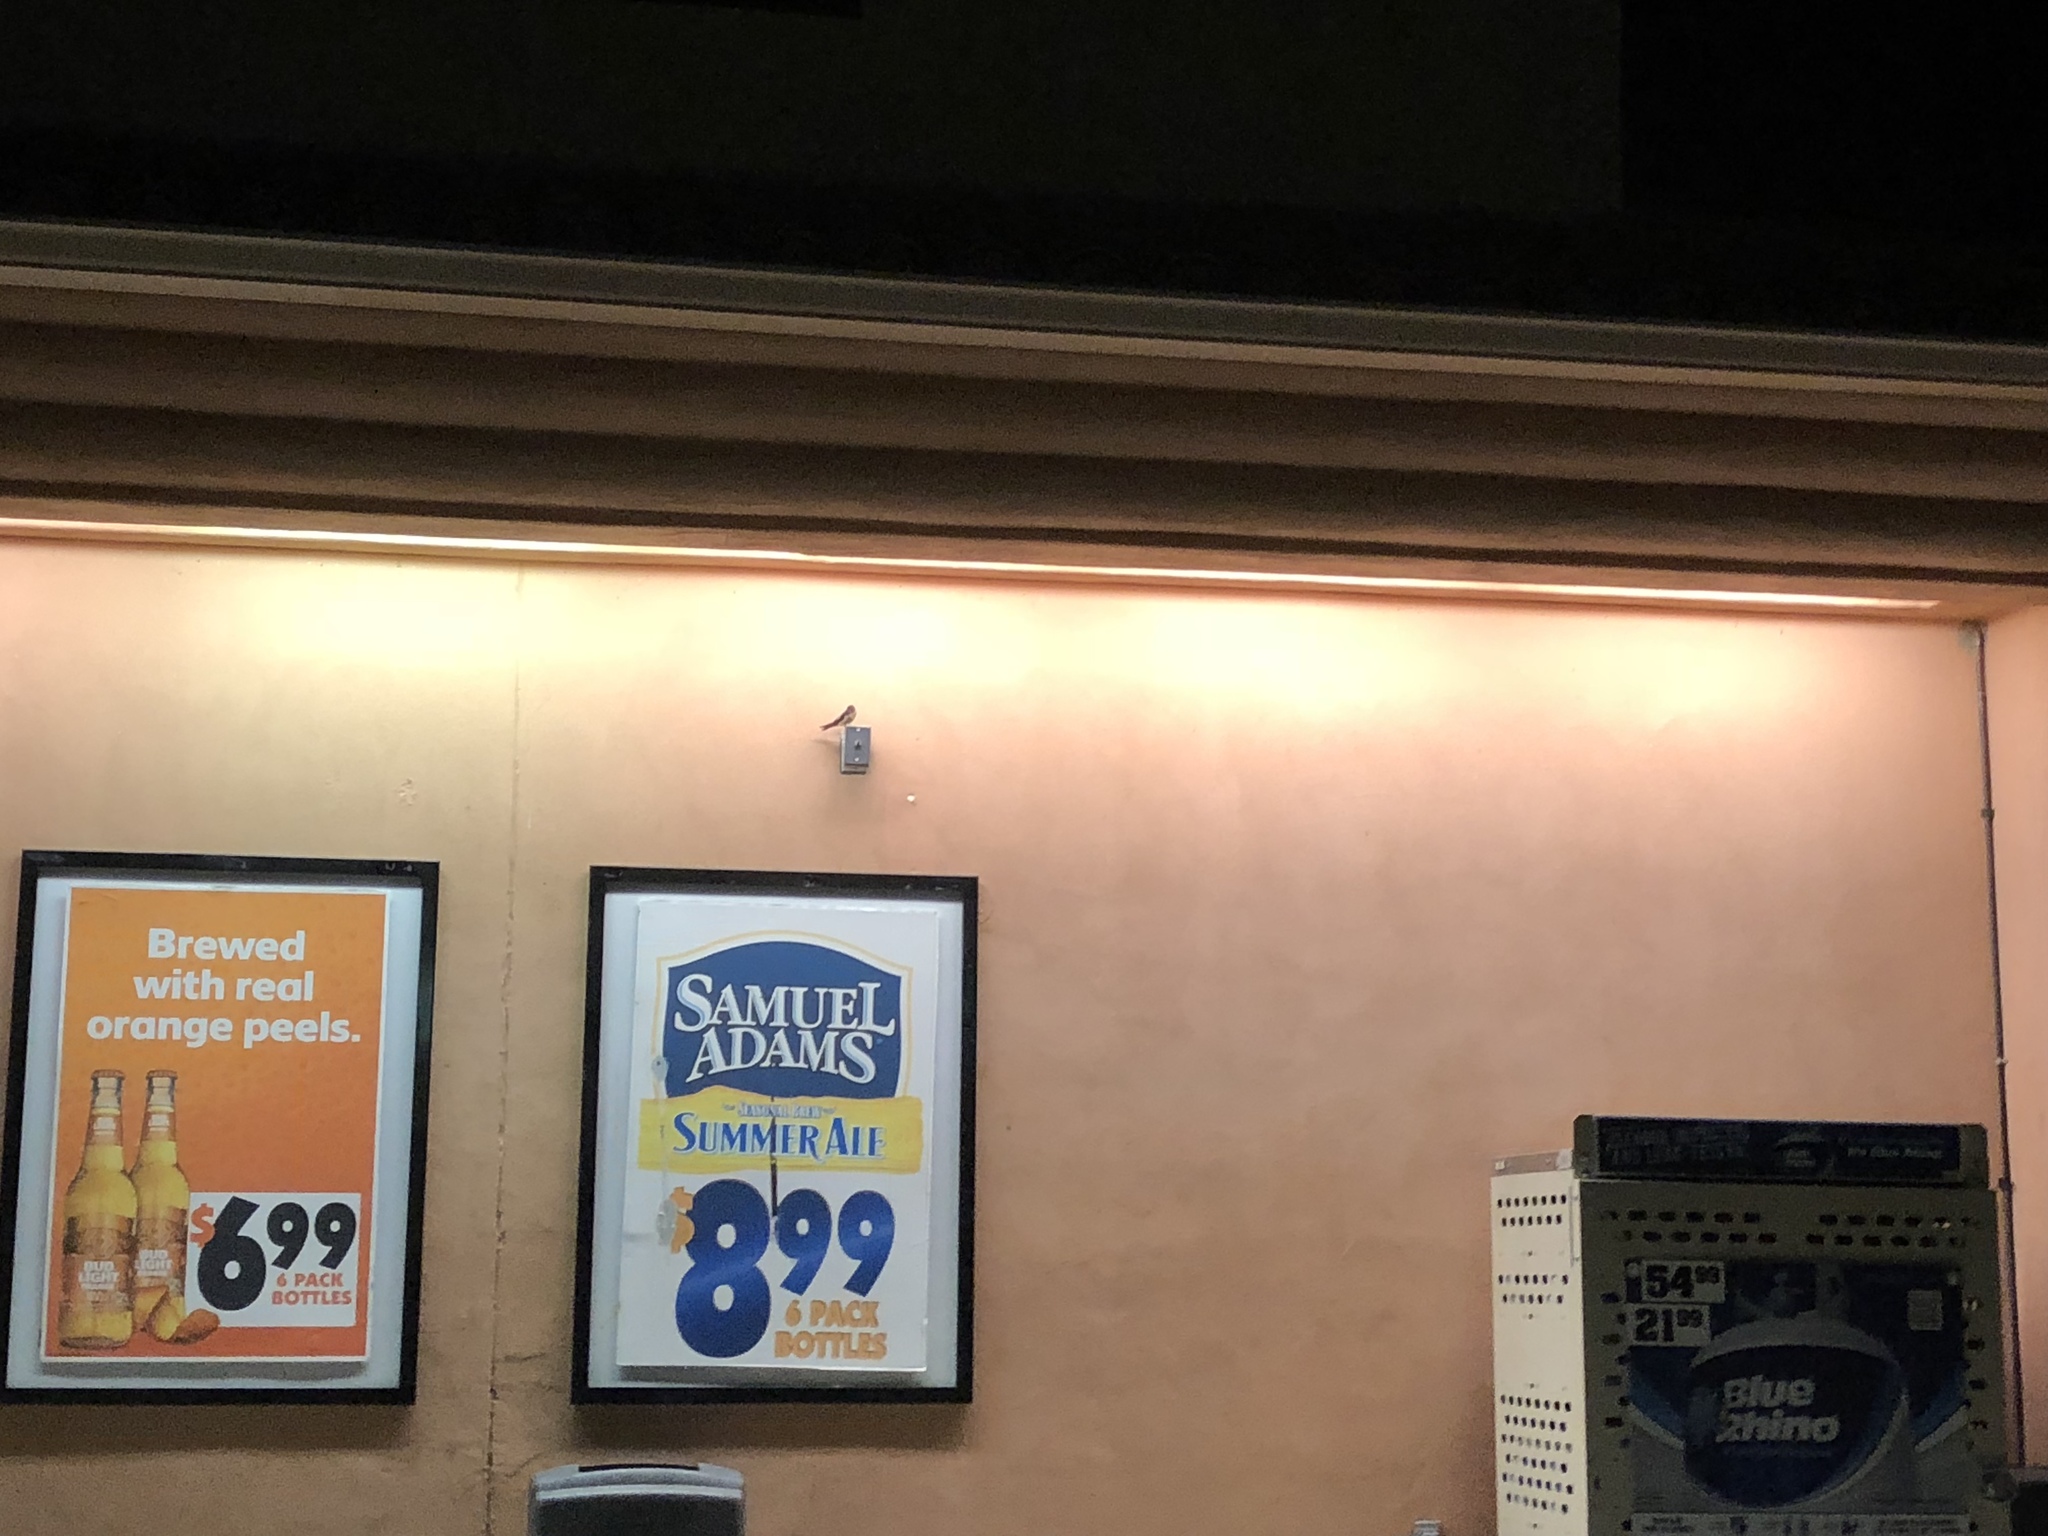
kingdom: Animalia
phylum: Chordata
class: Aves
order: Passeriformes
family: Hirundinidae
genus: Hirundo
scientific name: Hirundo rustica
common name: Barn swallow
